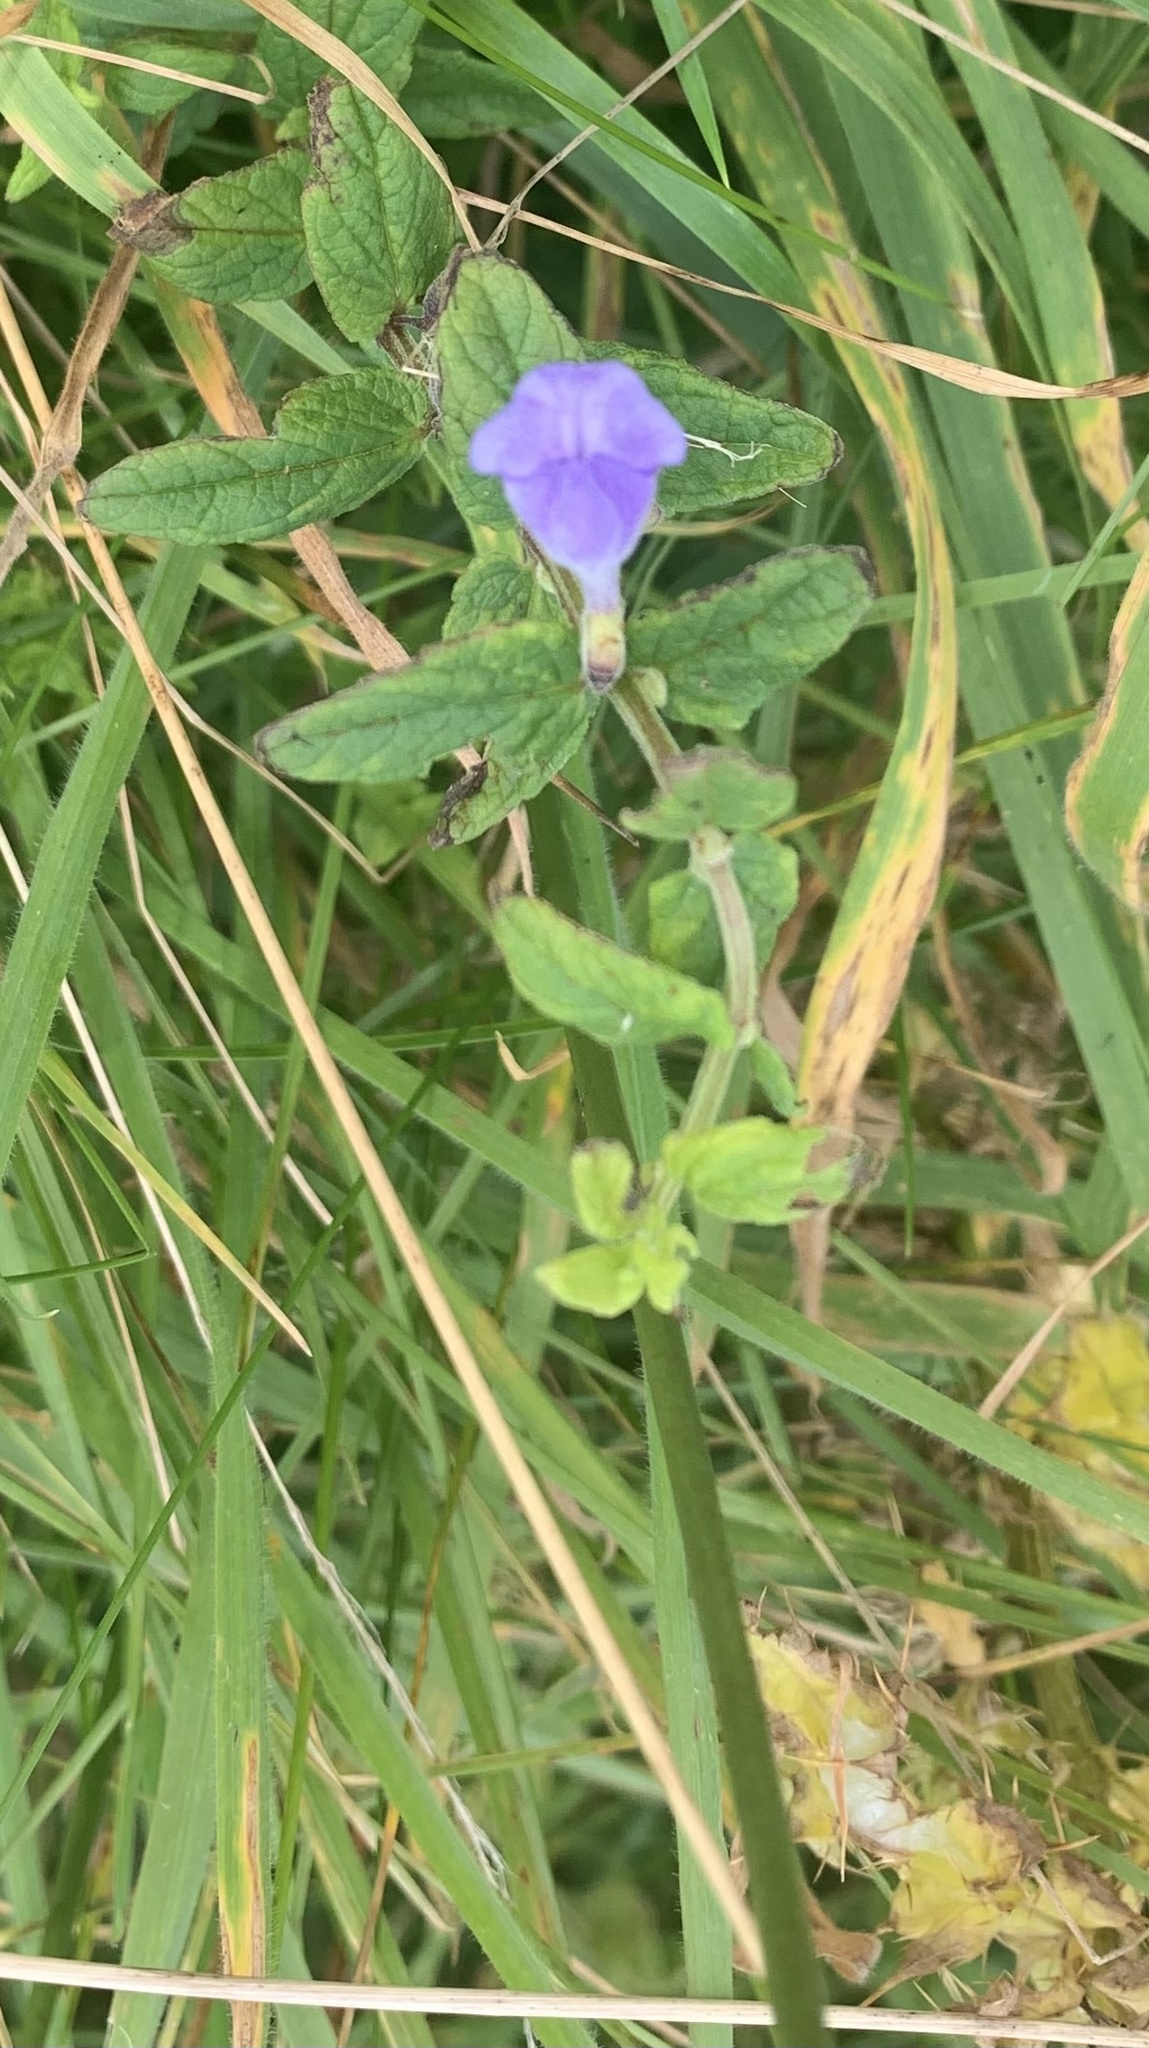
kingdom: Plantae
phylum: Tracheophyta
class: Magnoliopsida
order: Lamiales
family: Lamiaceae
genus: Scutellaria
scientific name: Scutellaria galericulata
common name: Skullcap
